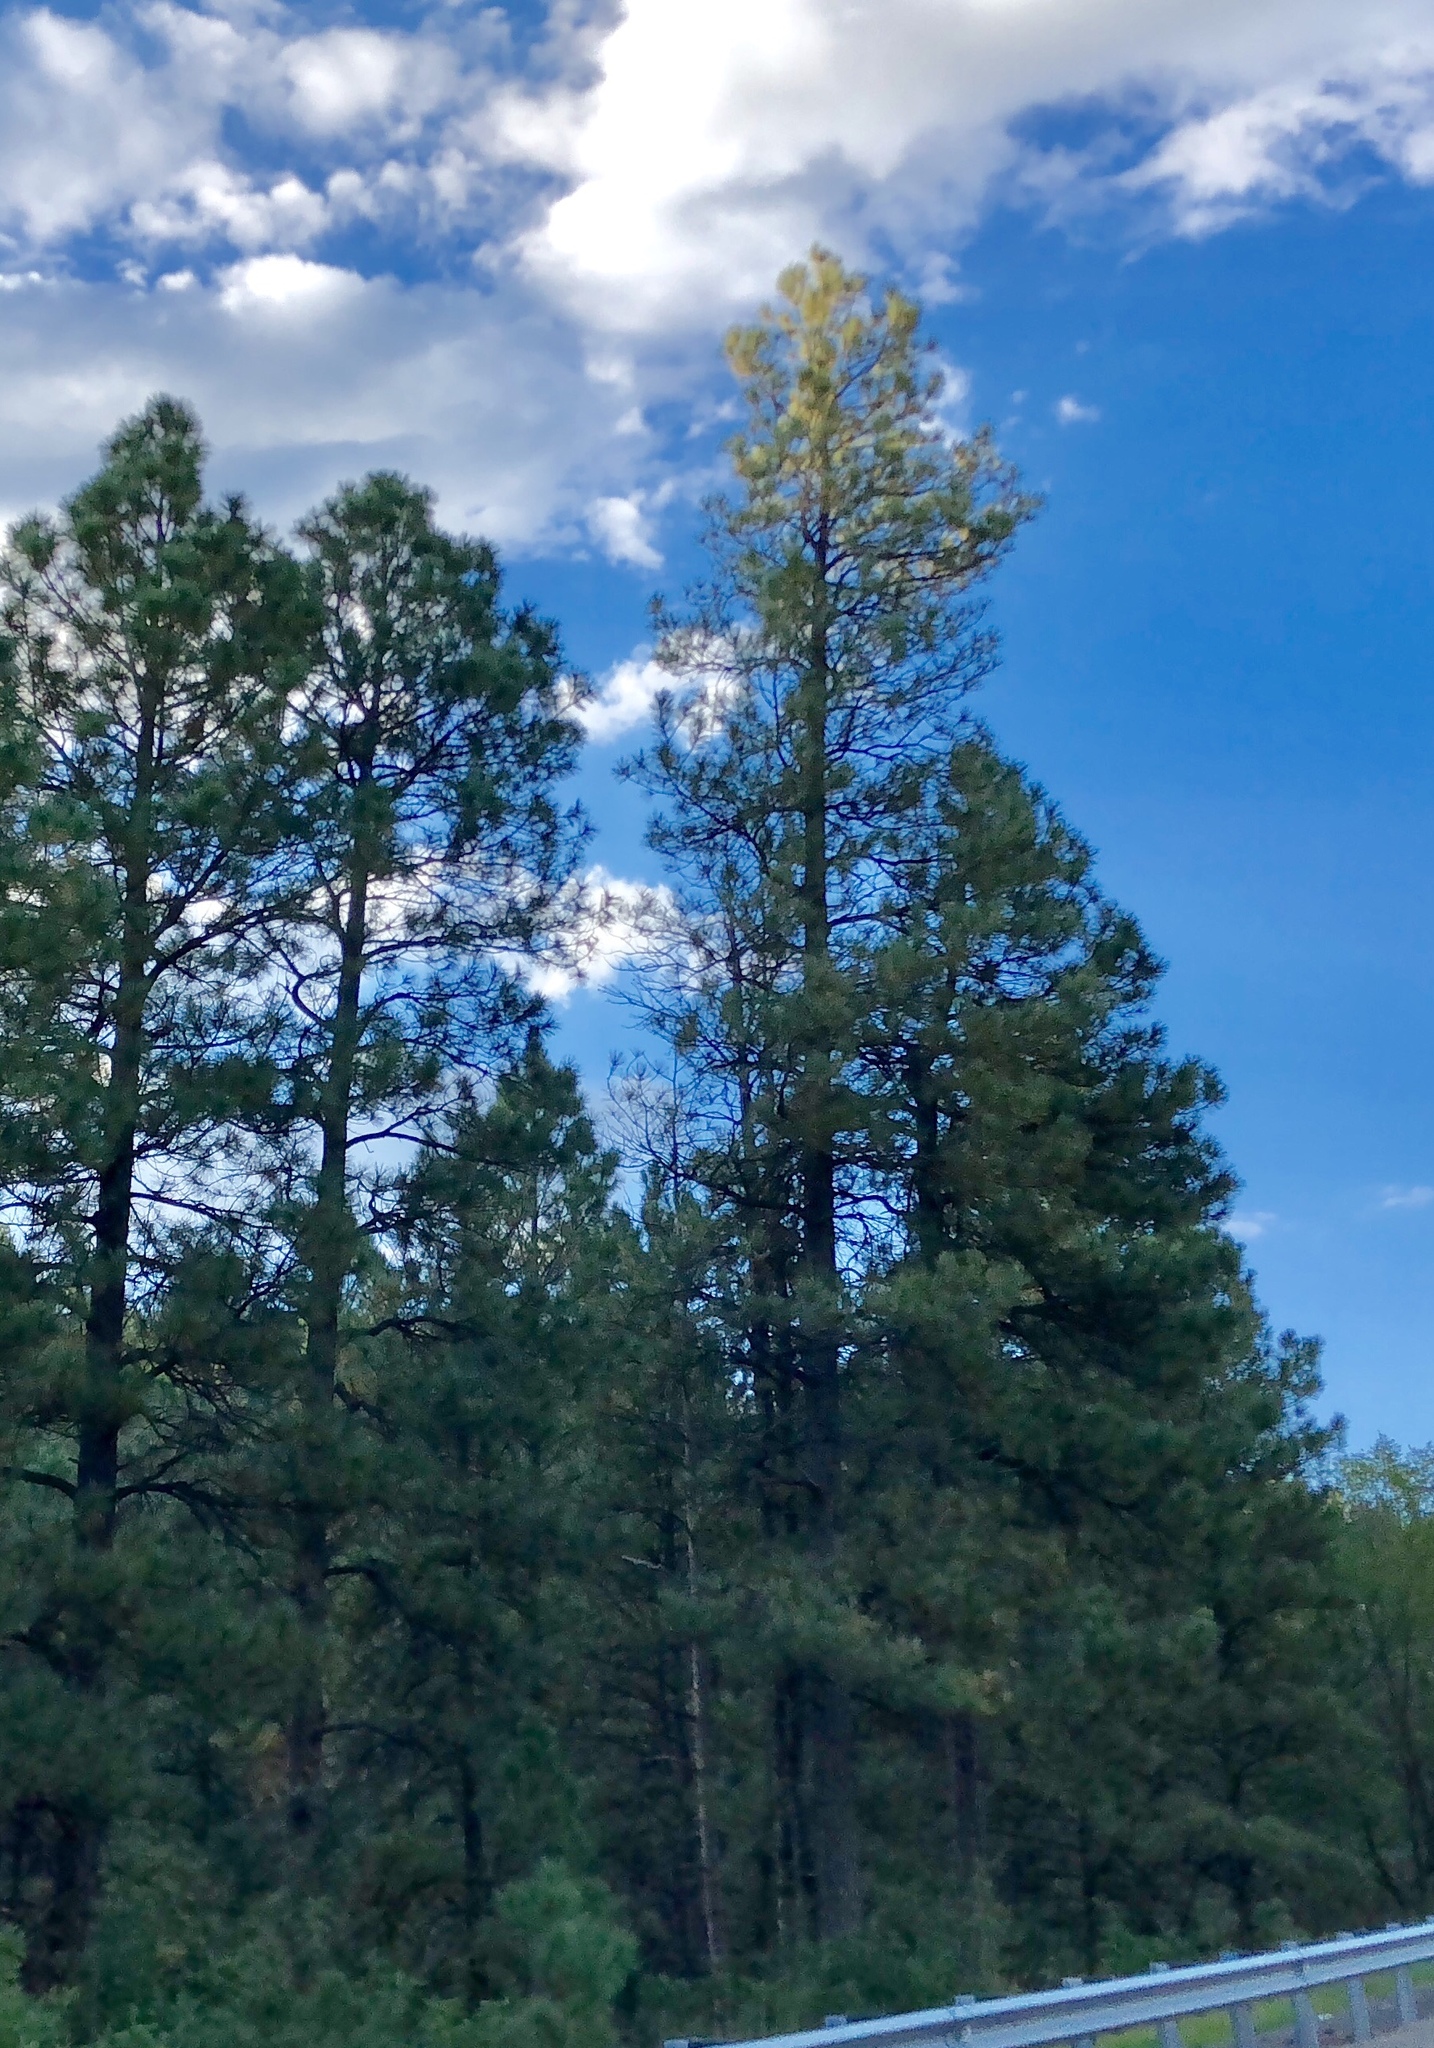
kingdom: Plantae
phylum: Tracheophyta
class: Pinopsida
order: Pinales
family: Pinaceae
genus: Pinus
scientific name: Pinus ponderosa
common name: Western yellow-pine
